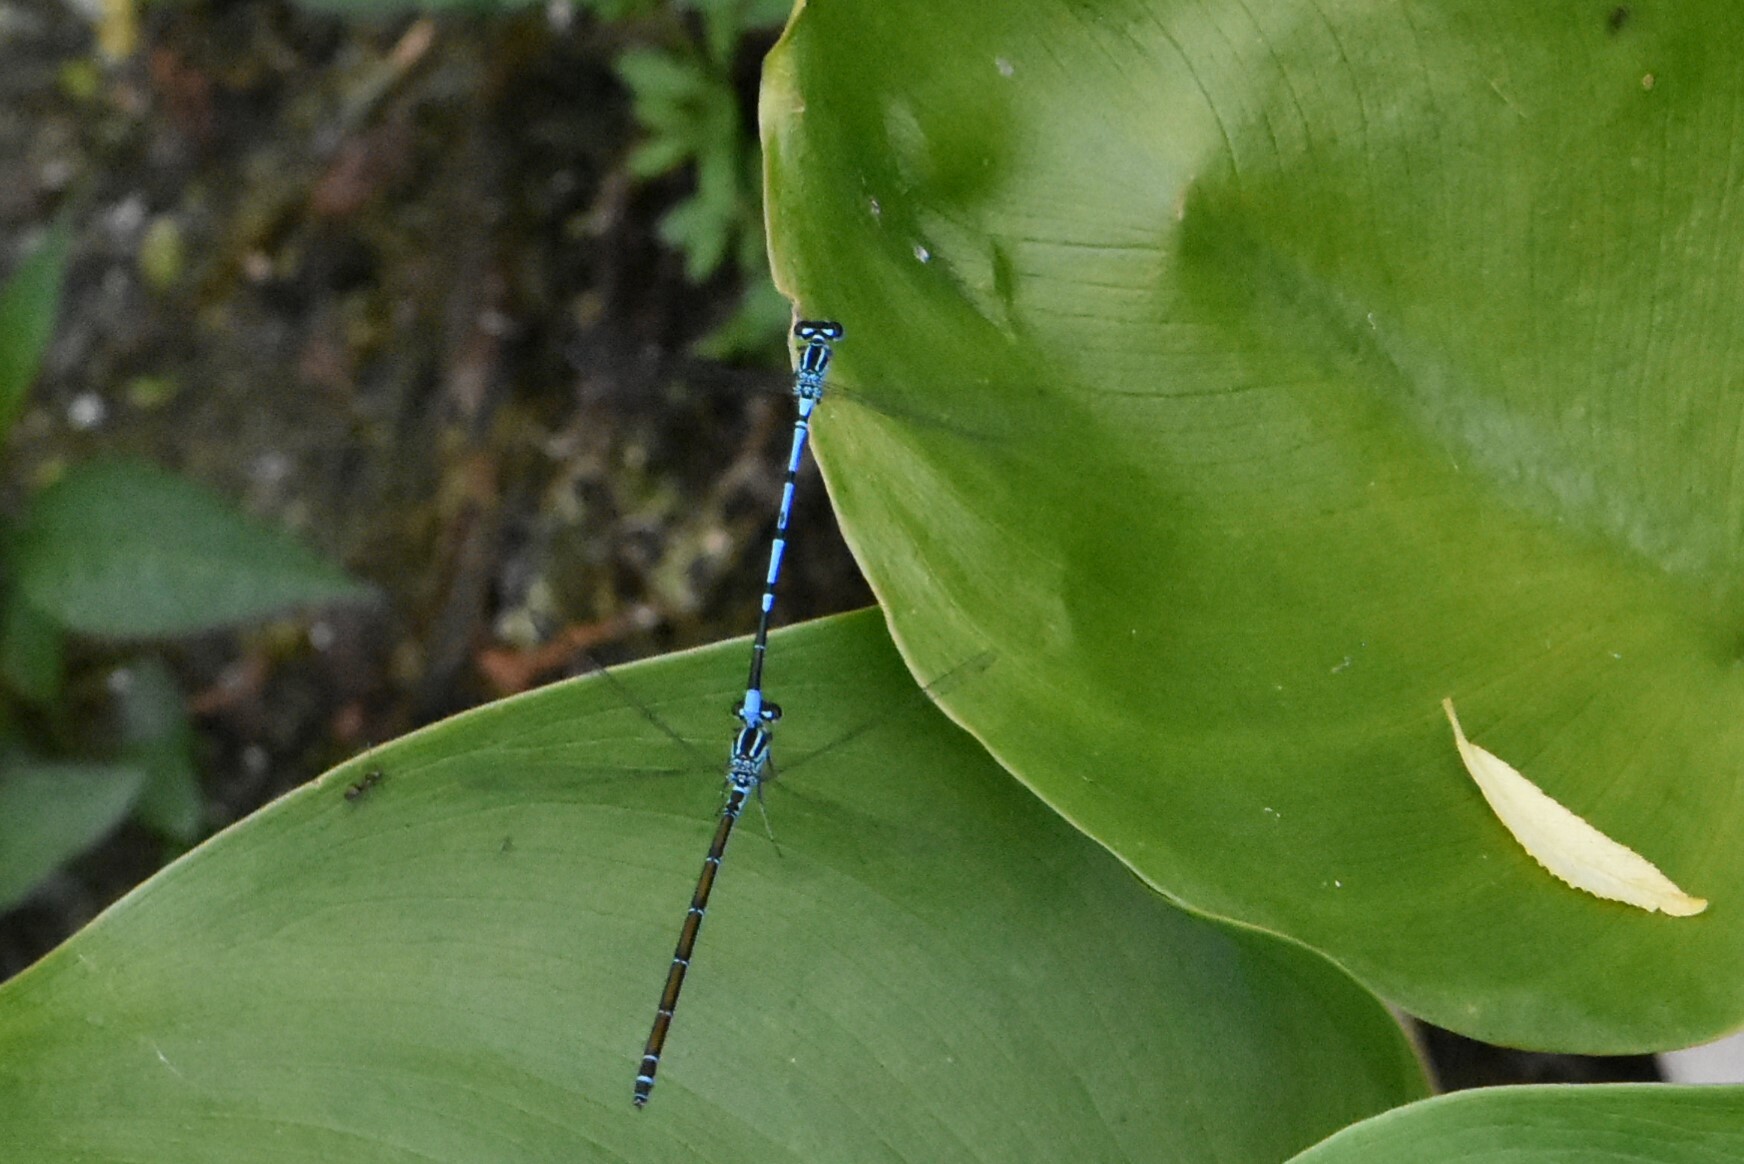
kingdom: Animalia
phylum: Arthropoda
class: Insecta
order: Odonata
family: Coenagrionidae
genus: Coenagrion
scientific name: Coenagrion puella
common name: Azure damselfly
